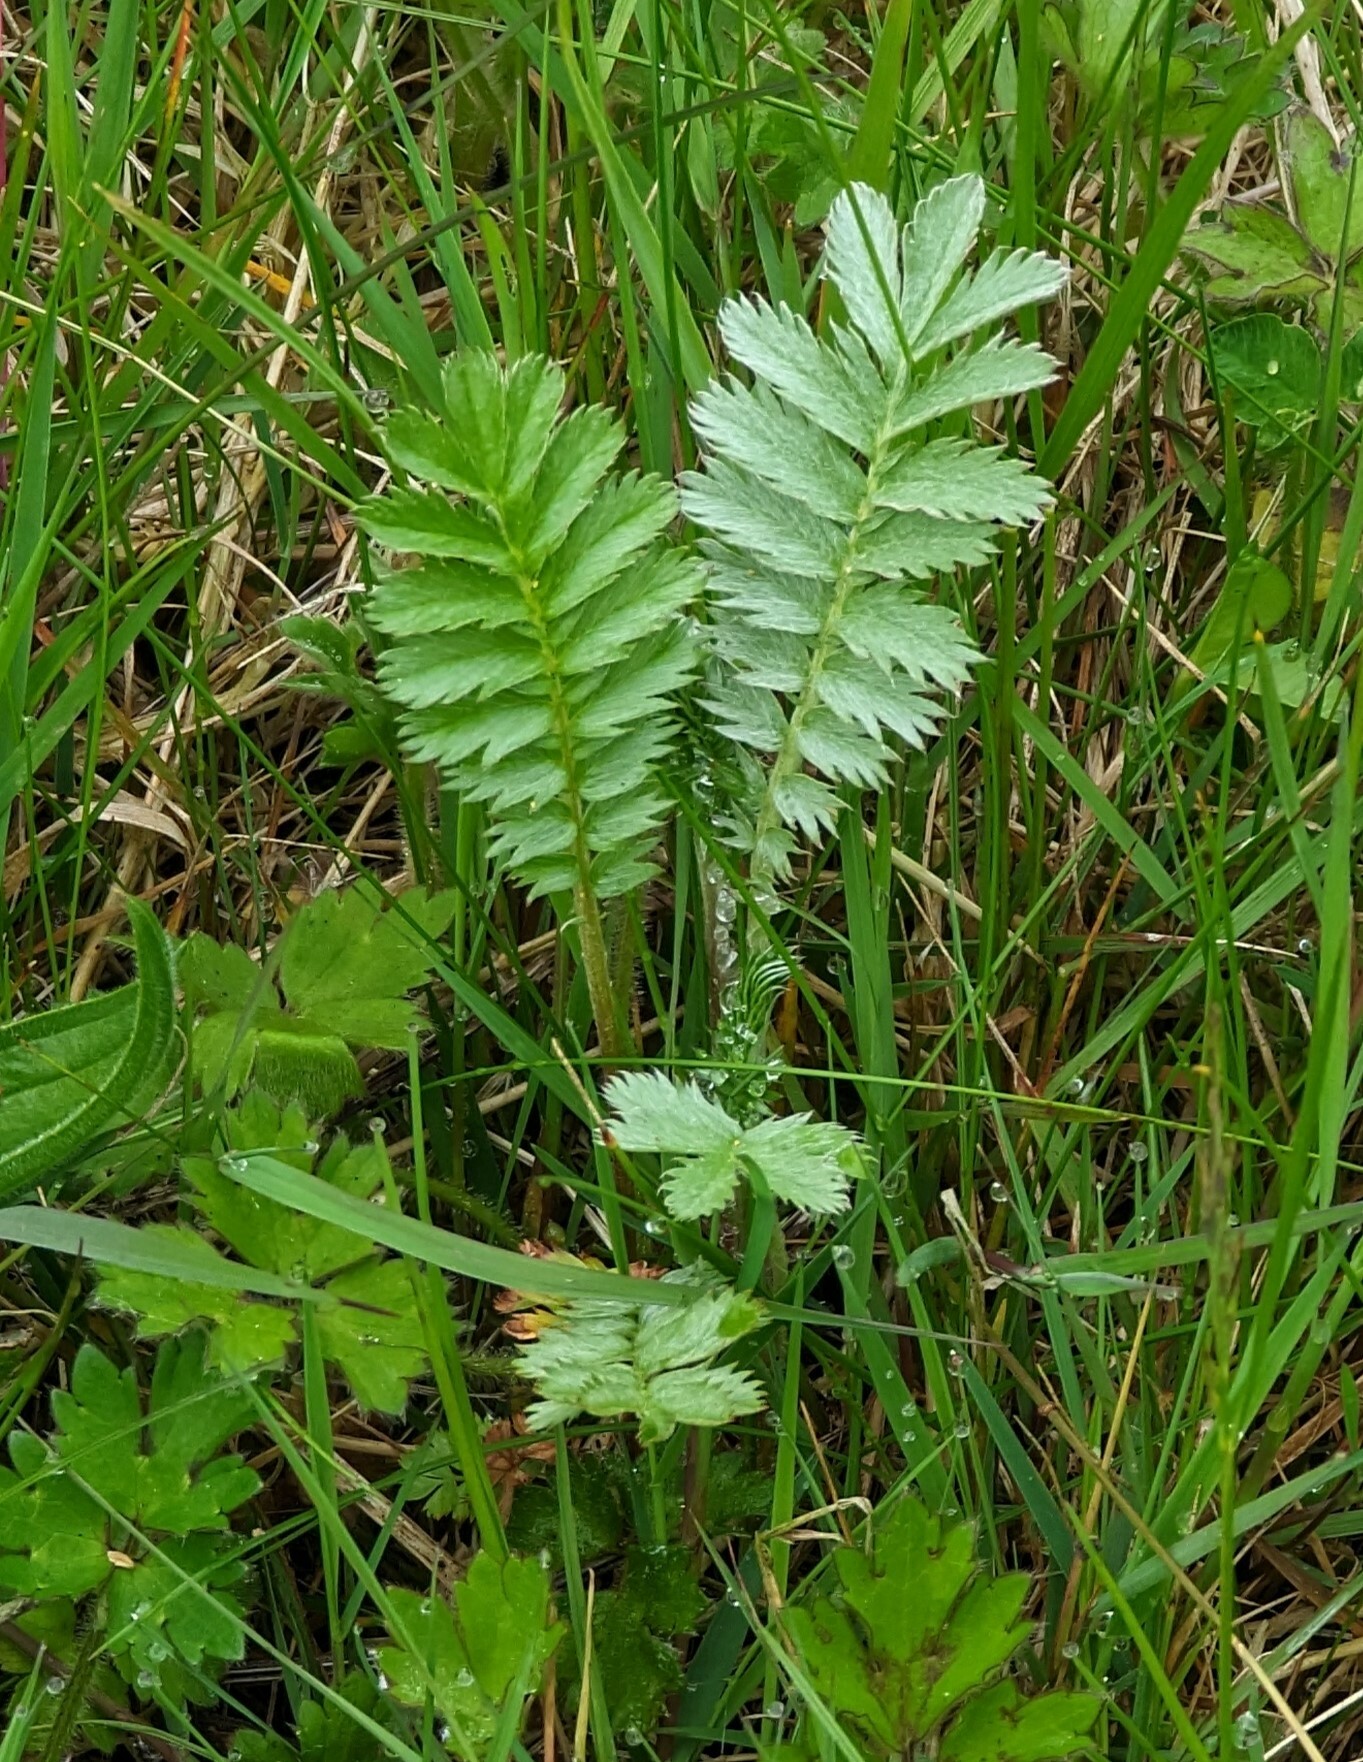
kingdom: Plantae
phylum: Tracheophyta
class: Magnoliopsida
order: Rosales
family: Rosaceae
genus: Argentina
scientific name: Argentina anserina
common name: Common silverweed
